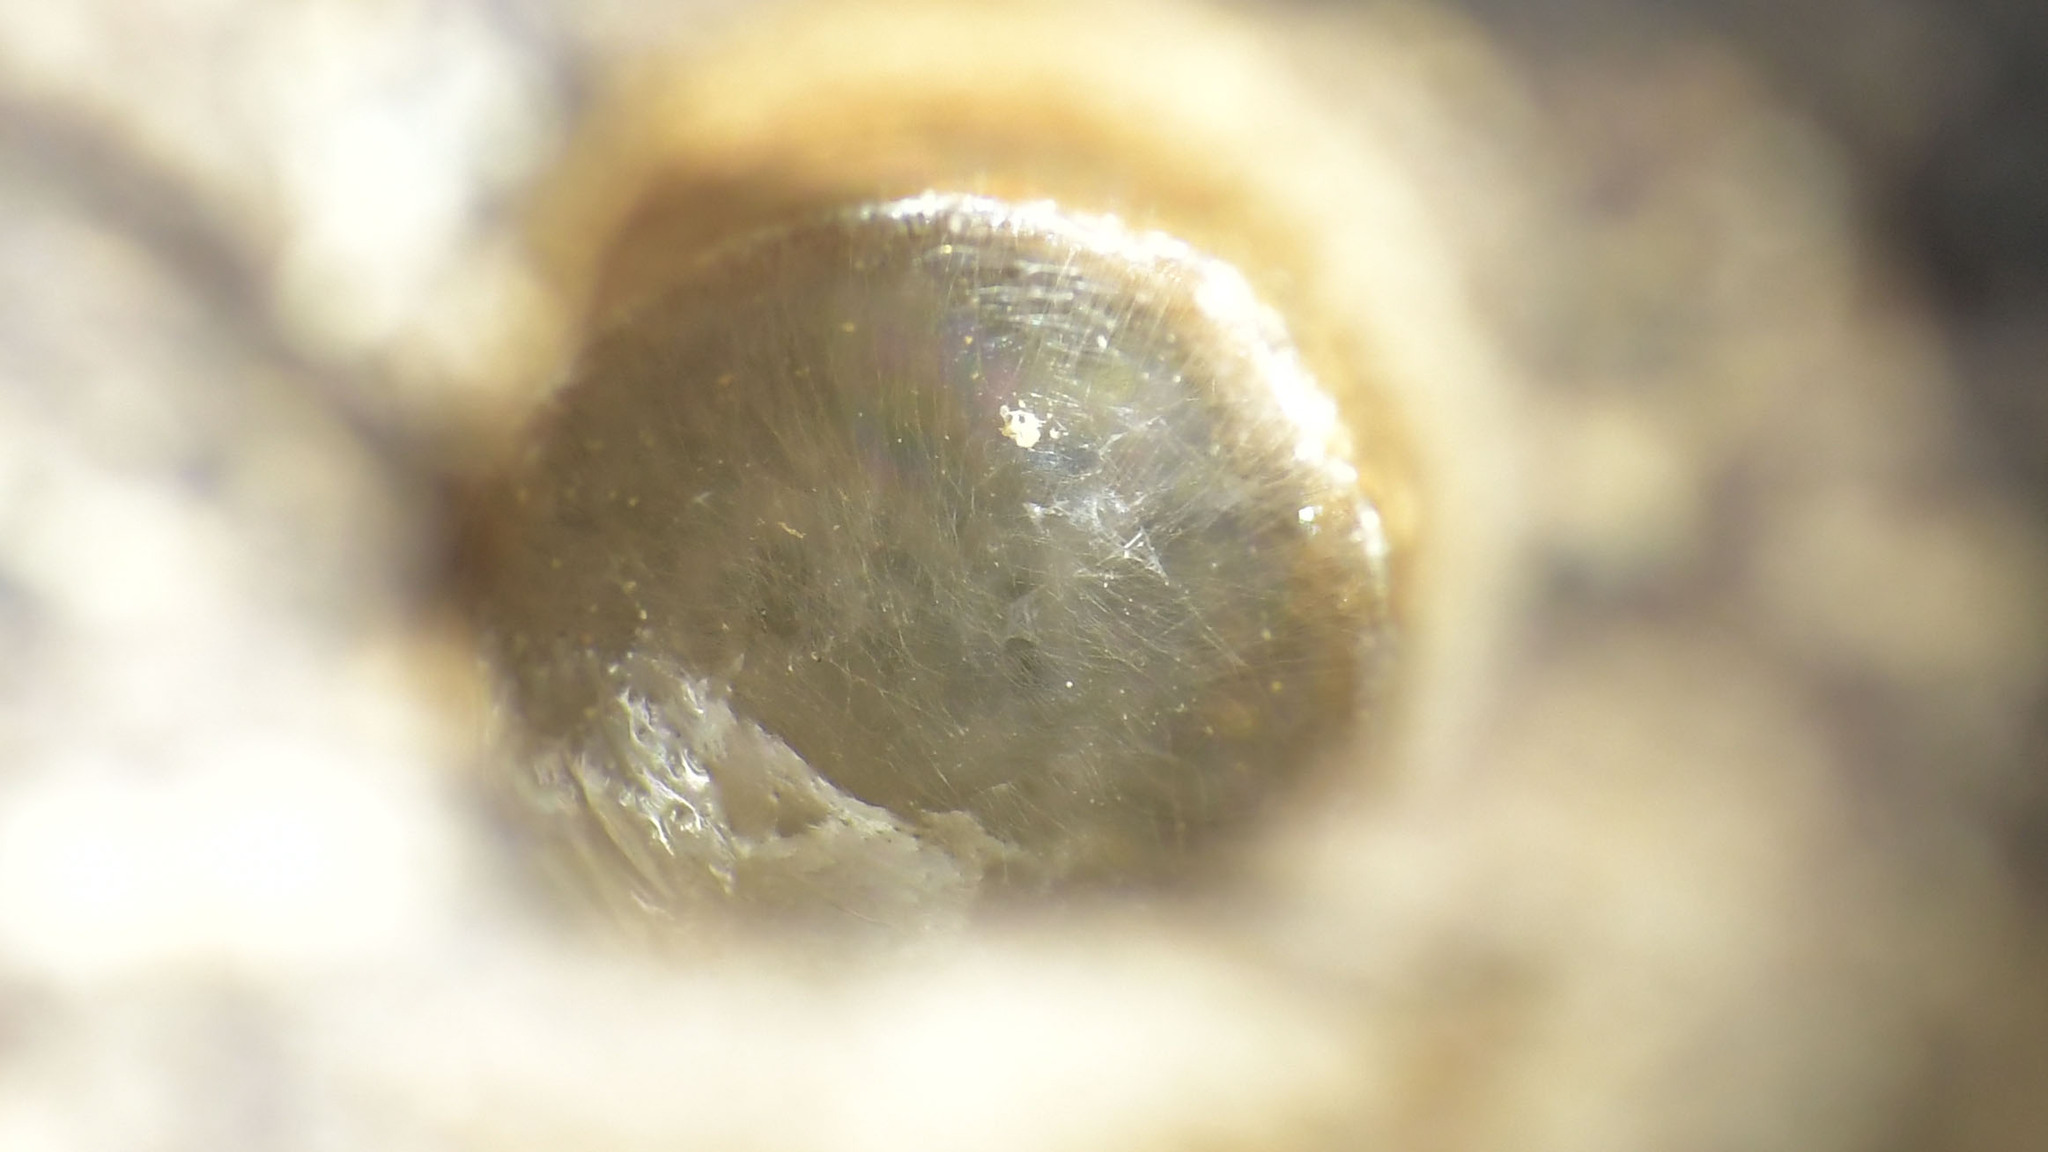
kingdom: Animalia
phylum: Arthropoda
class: Insecta
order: Hymenoptera
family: Colletidae
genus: Hylaeus
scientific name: Hylaeus mediolucens
